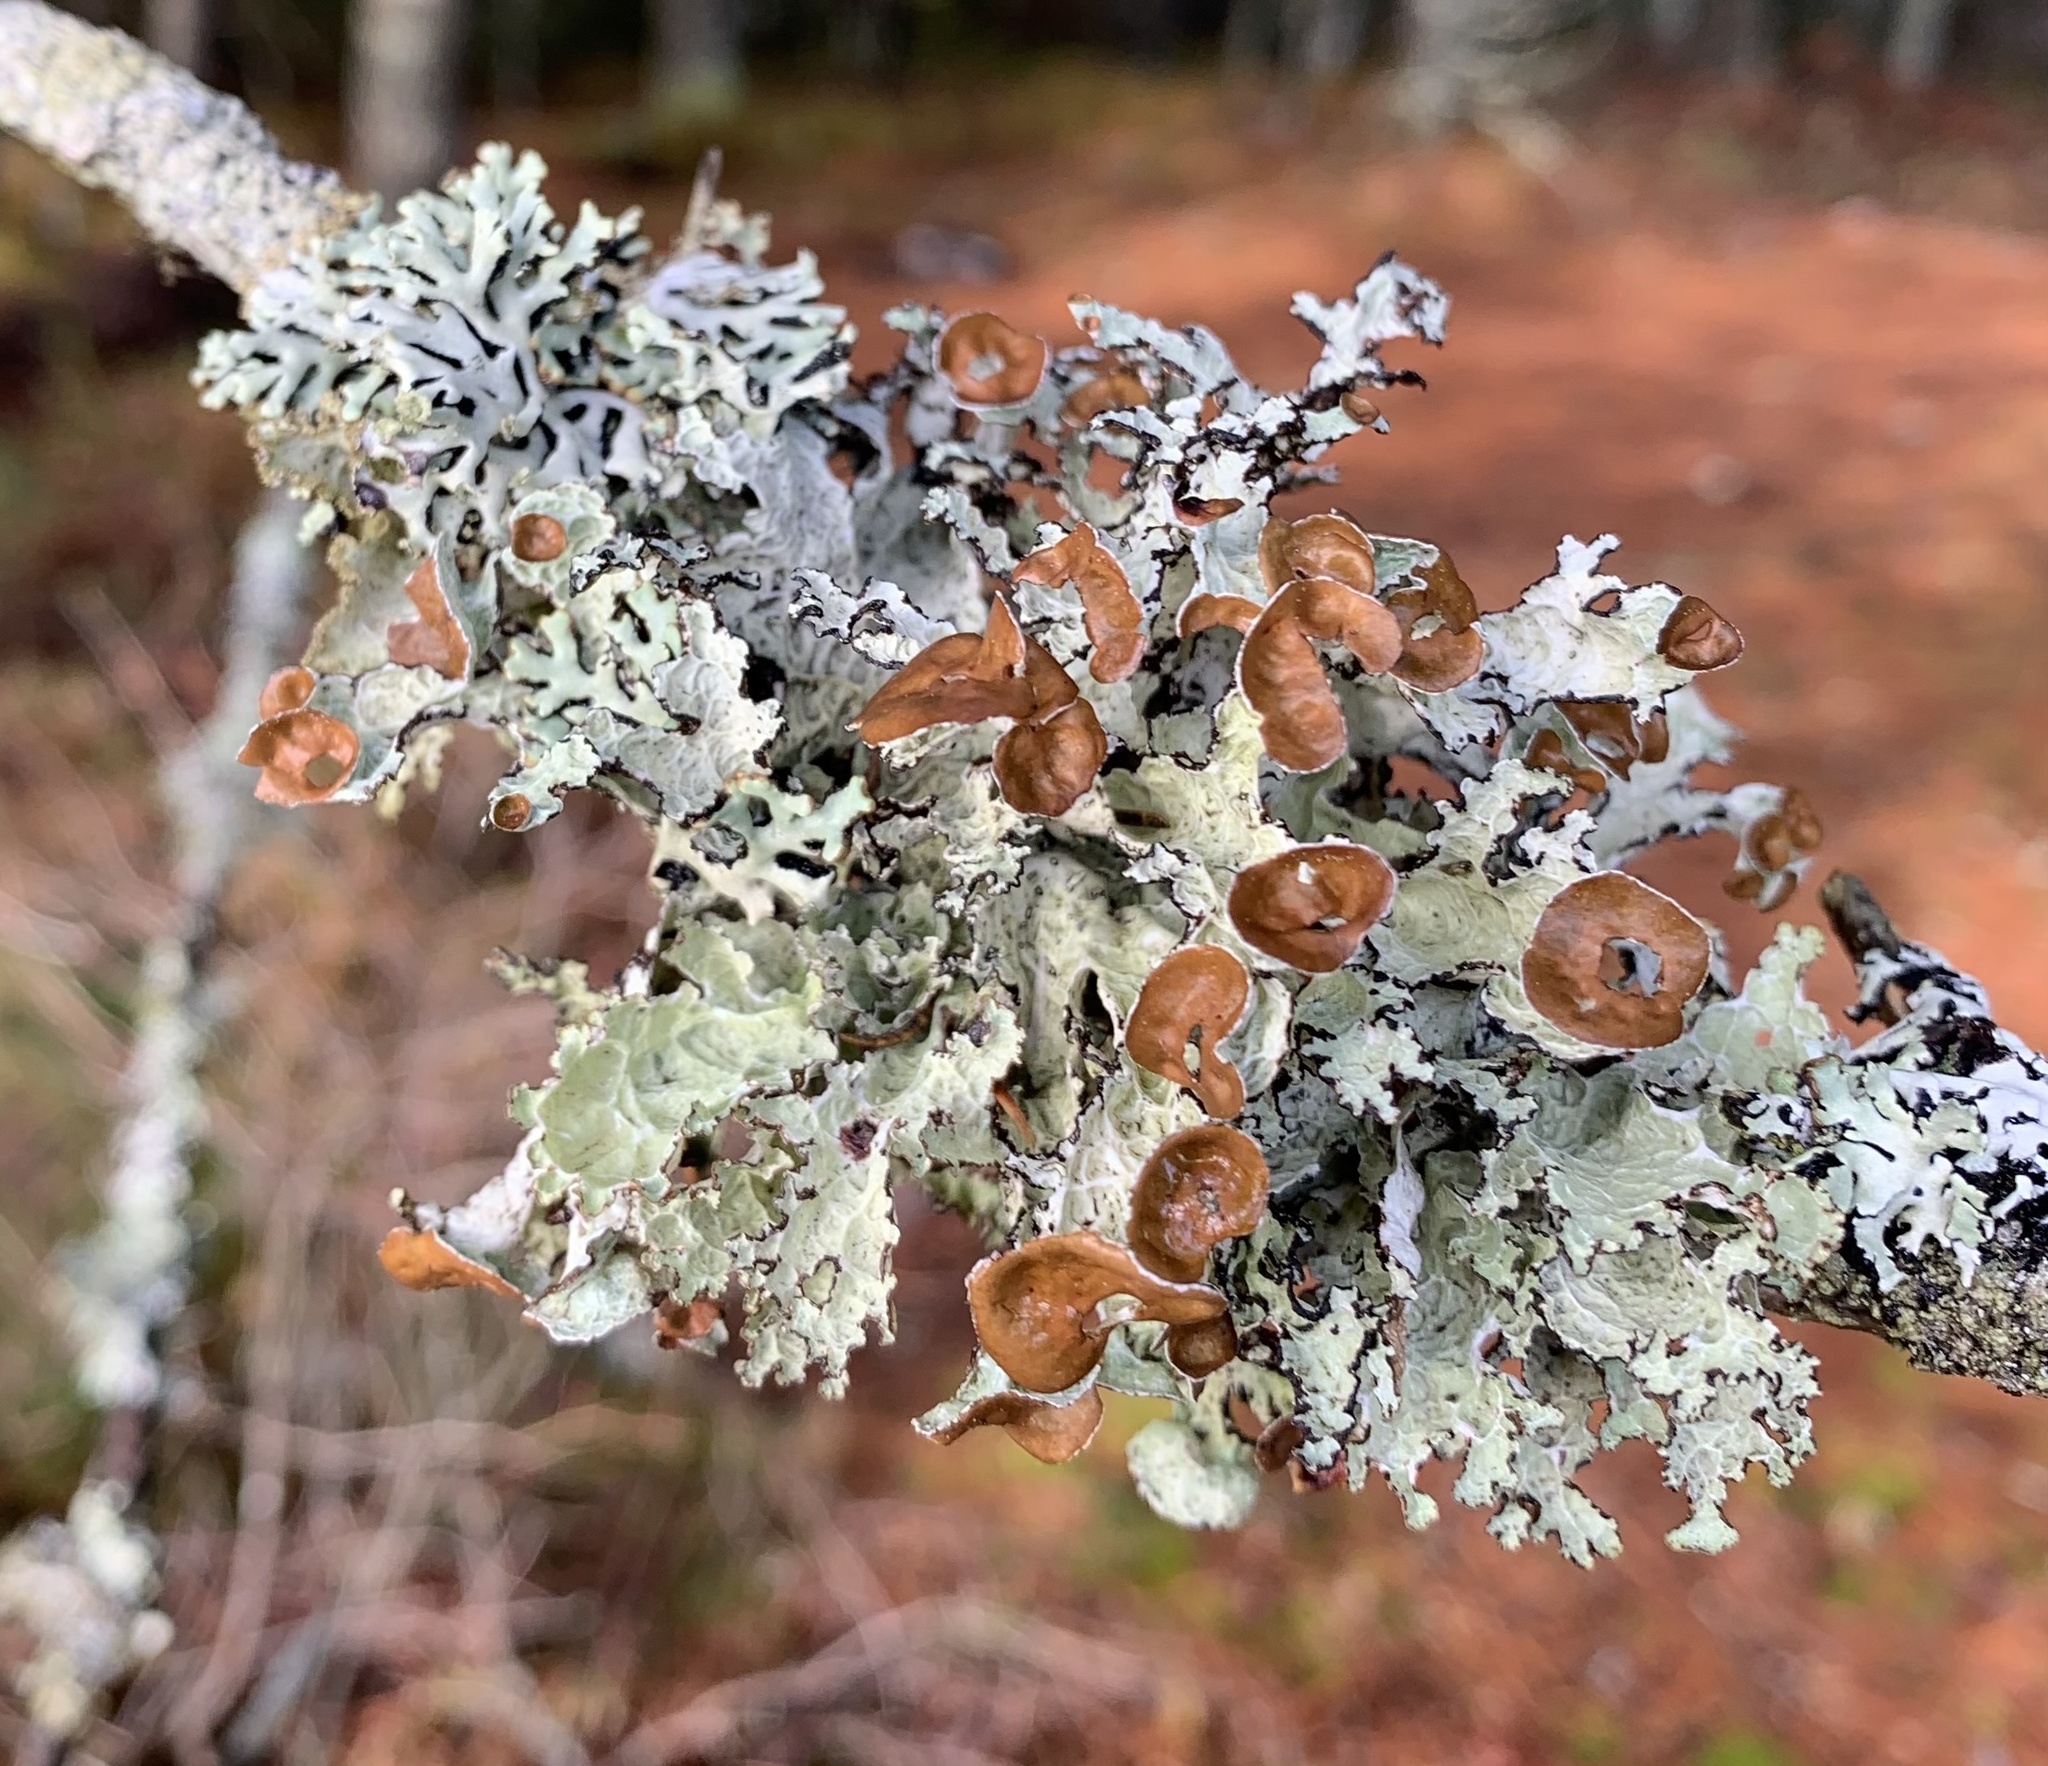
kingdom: Fungi
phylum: Ascomycota
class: Lecanoromycetes
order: Lecanorales
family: Parmeliaceae
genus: Platismatia
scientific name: Platismatia tuckermanii
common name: Crumpled rag lichen
